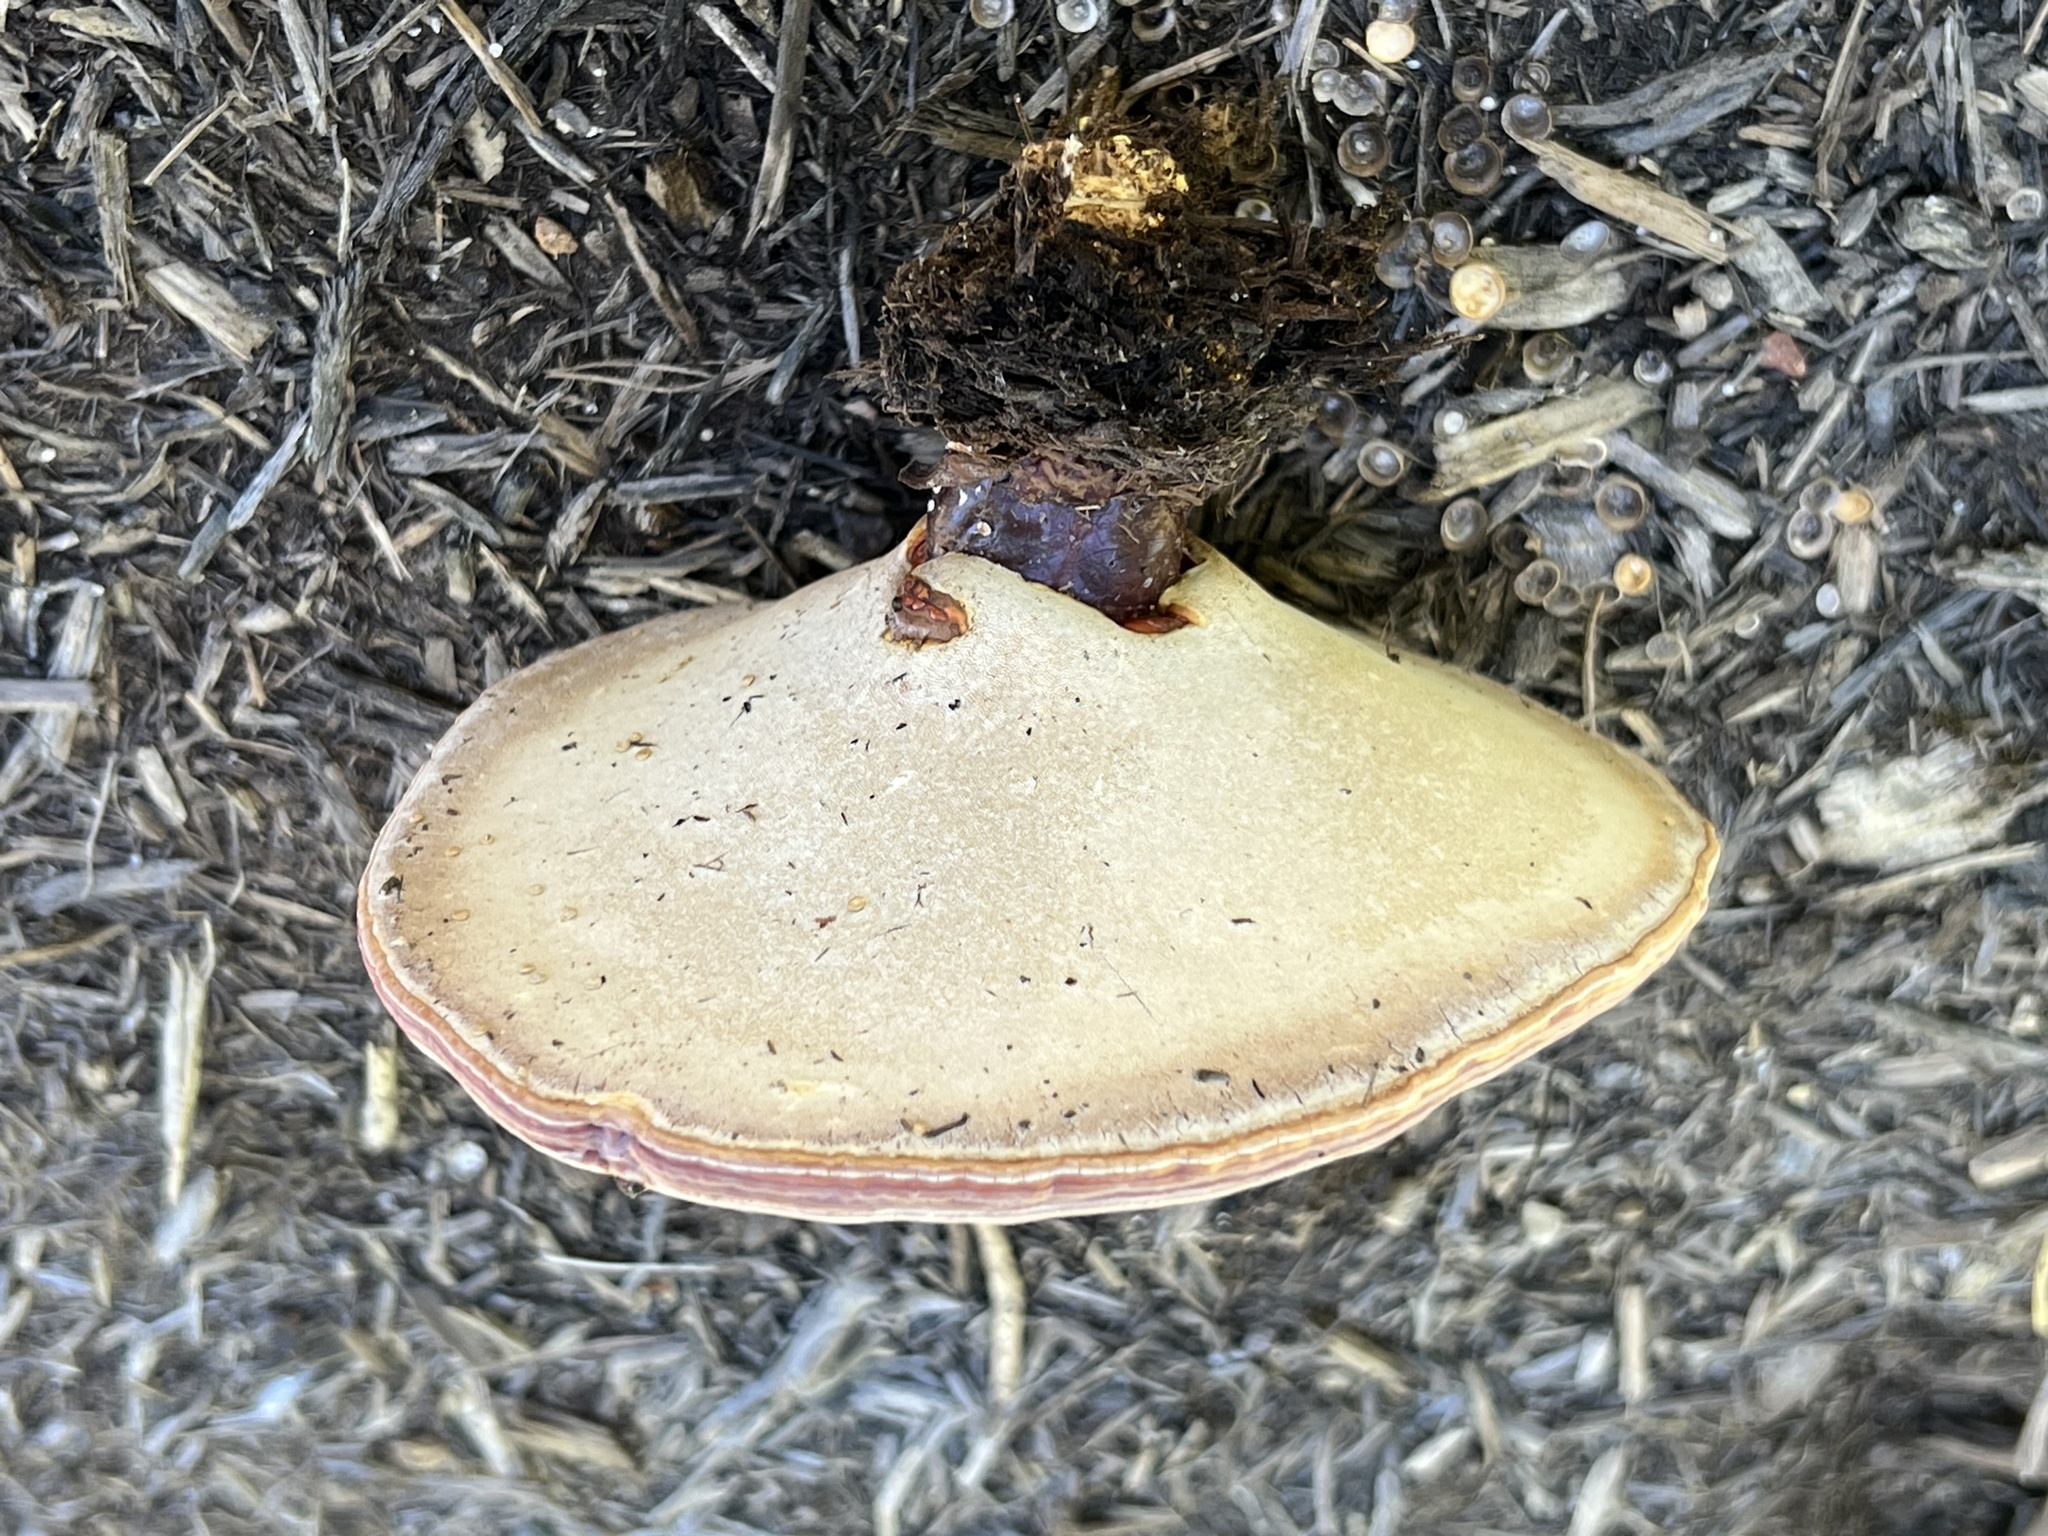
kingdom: Fungi
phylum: Basidiomycota
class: Agaricomycetes
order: Polyporales
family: Polyporaceae
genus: Ganoderma
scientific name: Ganoderma curtisii
